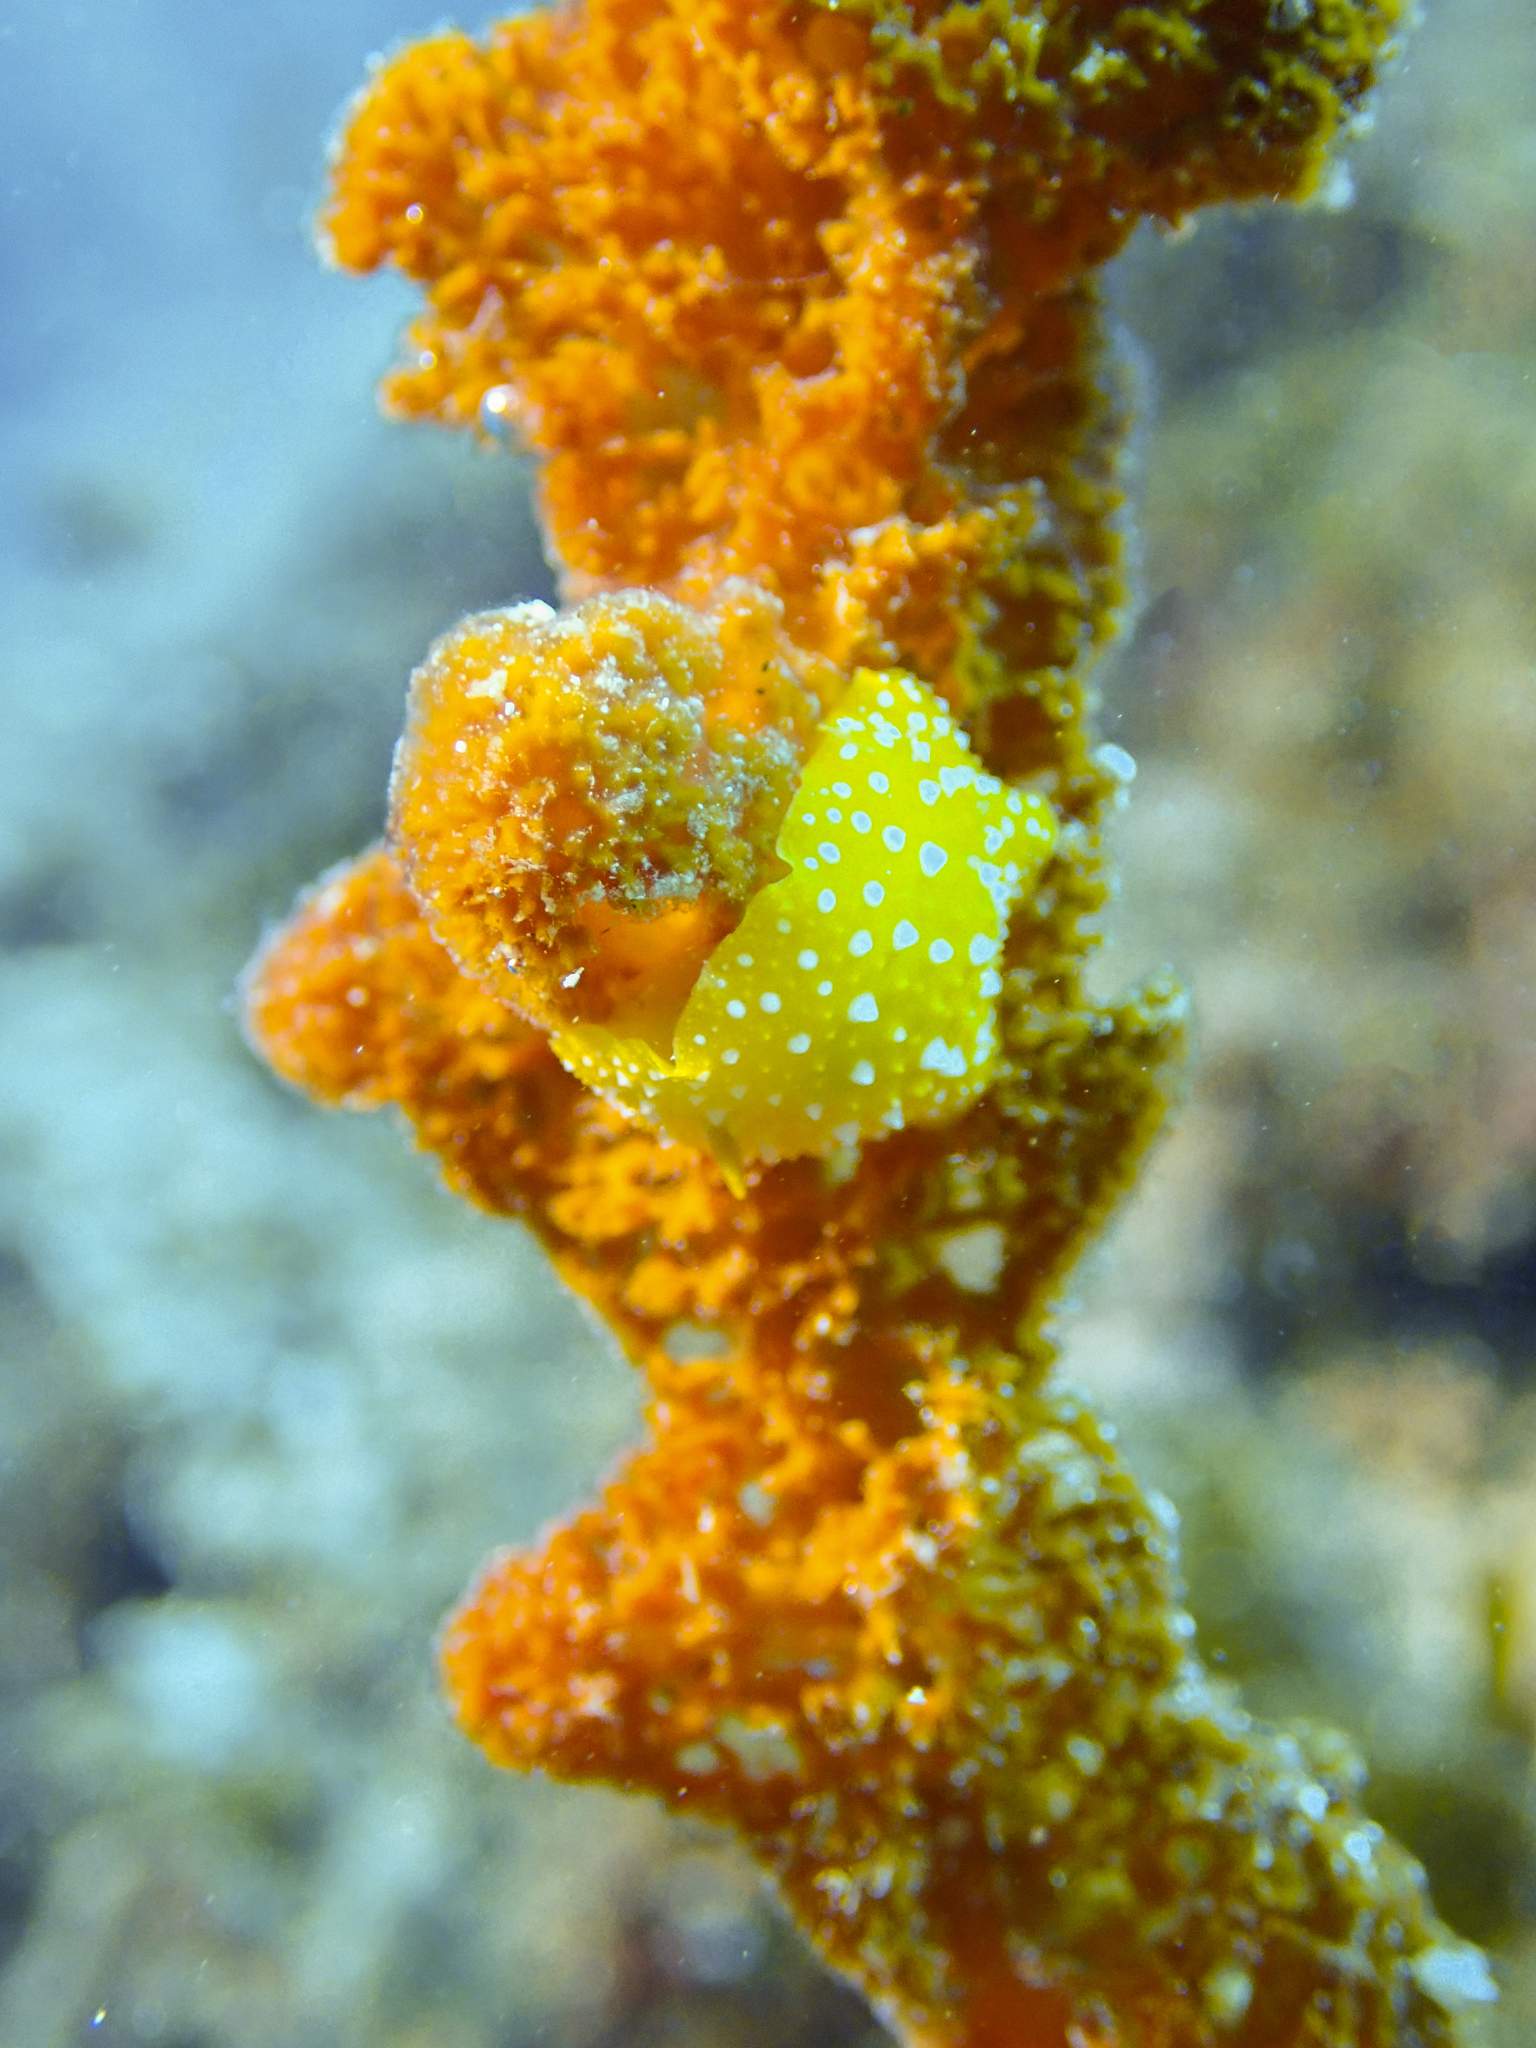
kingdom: Animalia
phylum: Mollusca
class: Gastropoda
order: Nudibranchia
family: Phyllidiidae
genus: Phyllidia
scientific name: Phyllidia flava
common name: White-spotted yellow nudibranch
